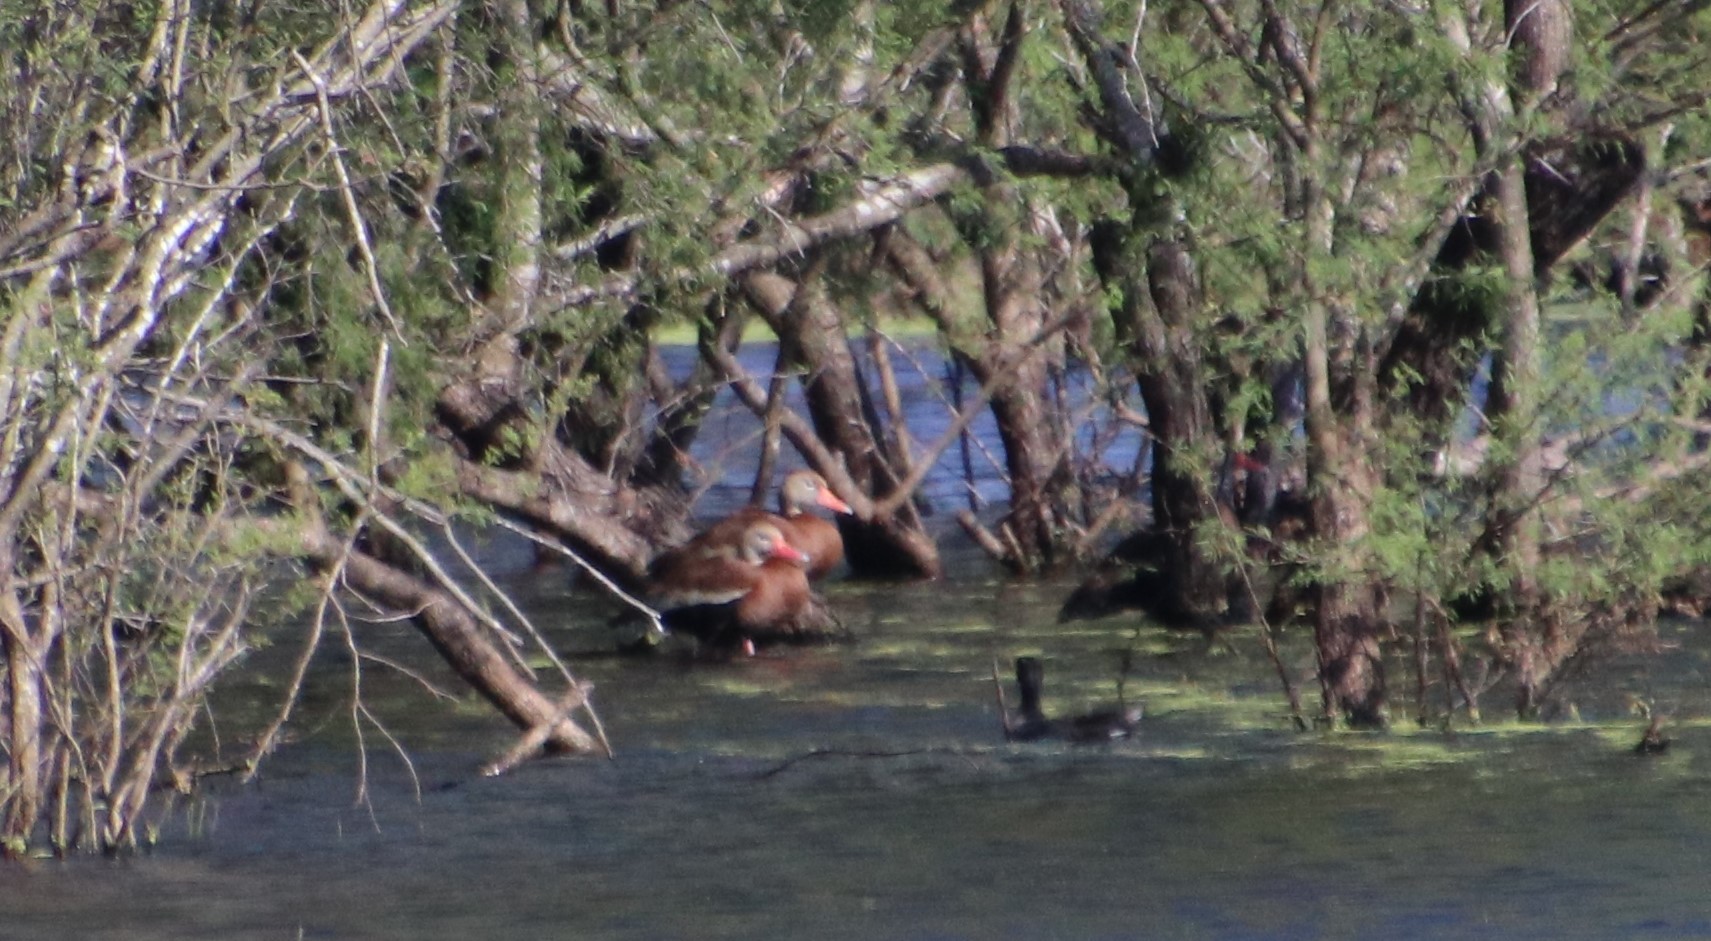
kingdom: Animalia
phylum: Chordata
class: Aves
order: Anseriformes
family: Anatidae
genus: Dendrocygna
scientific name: Dendrocygna autumnalis
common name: Black-bellied whistling duck
